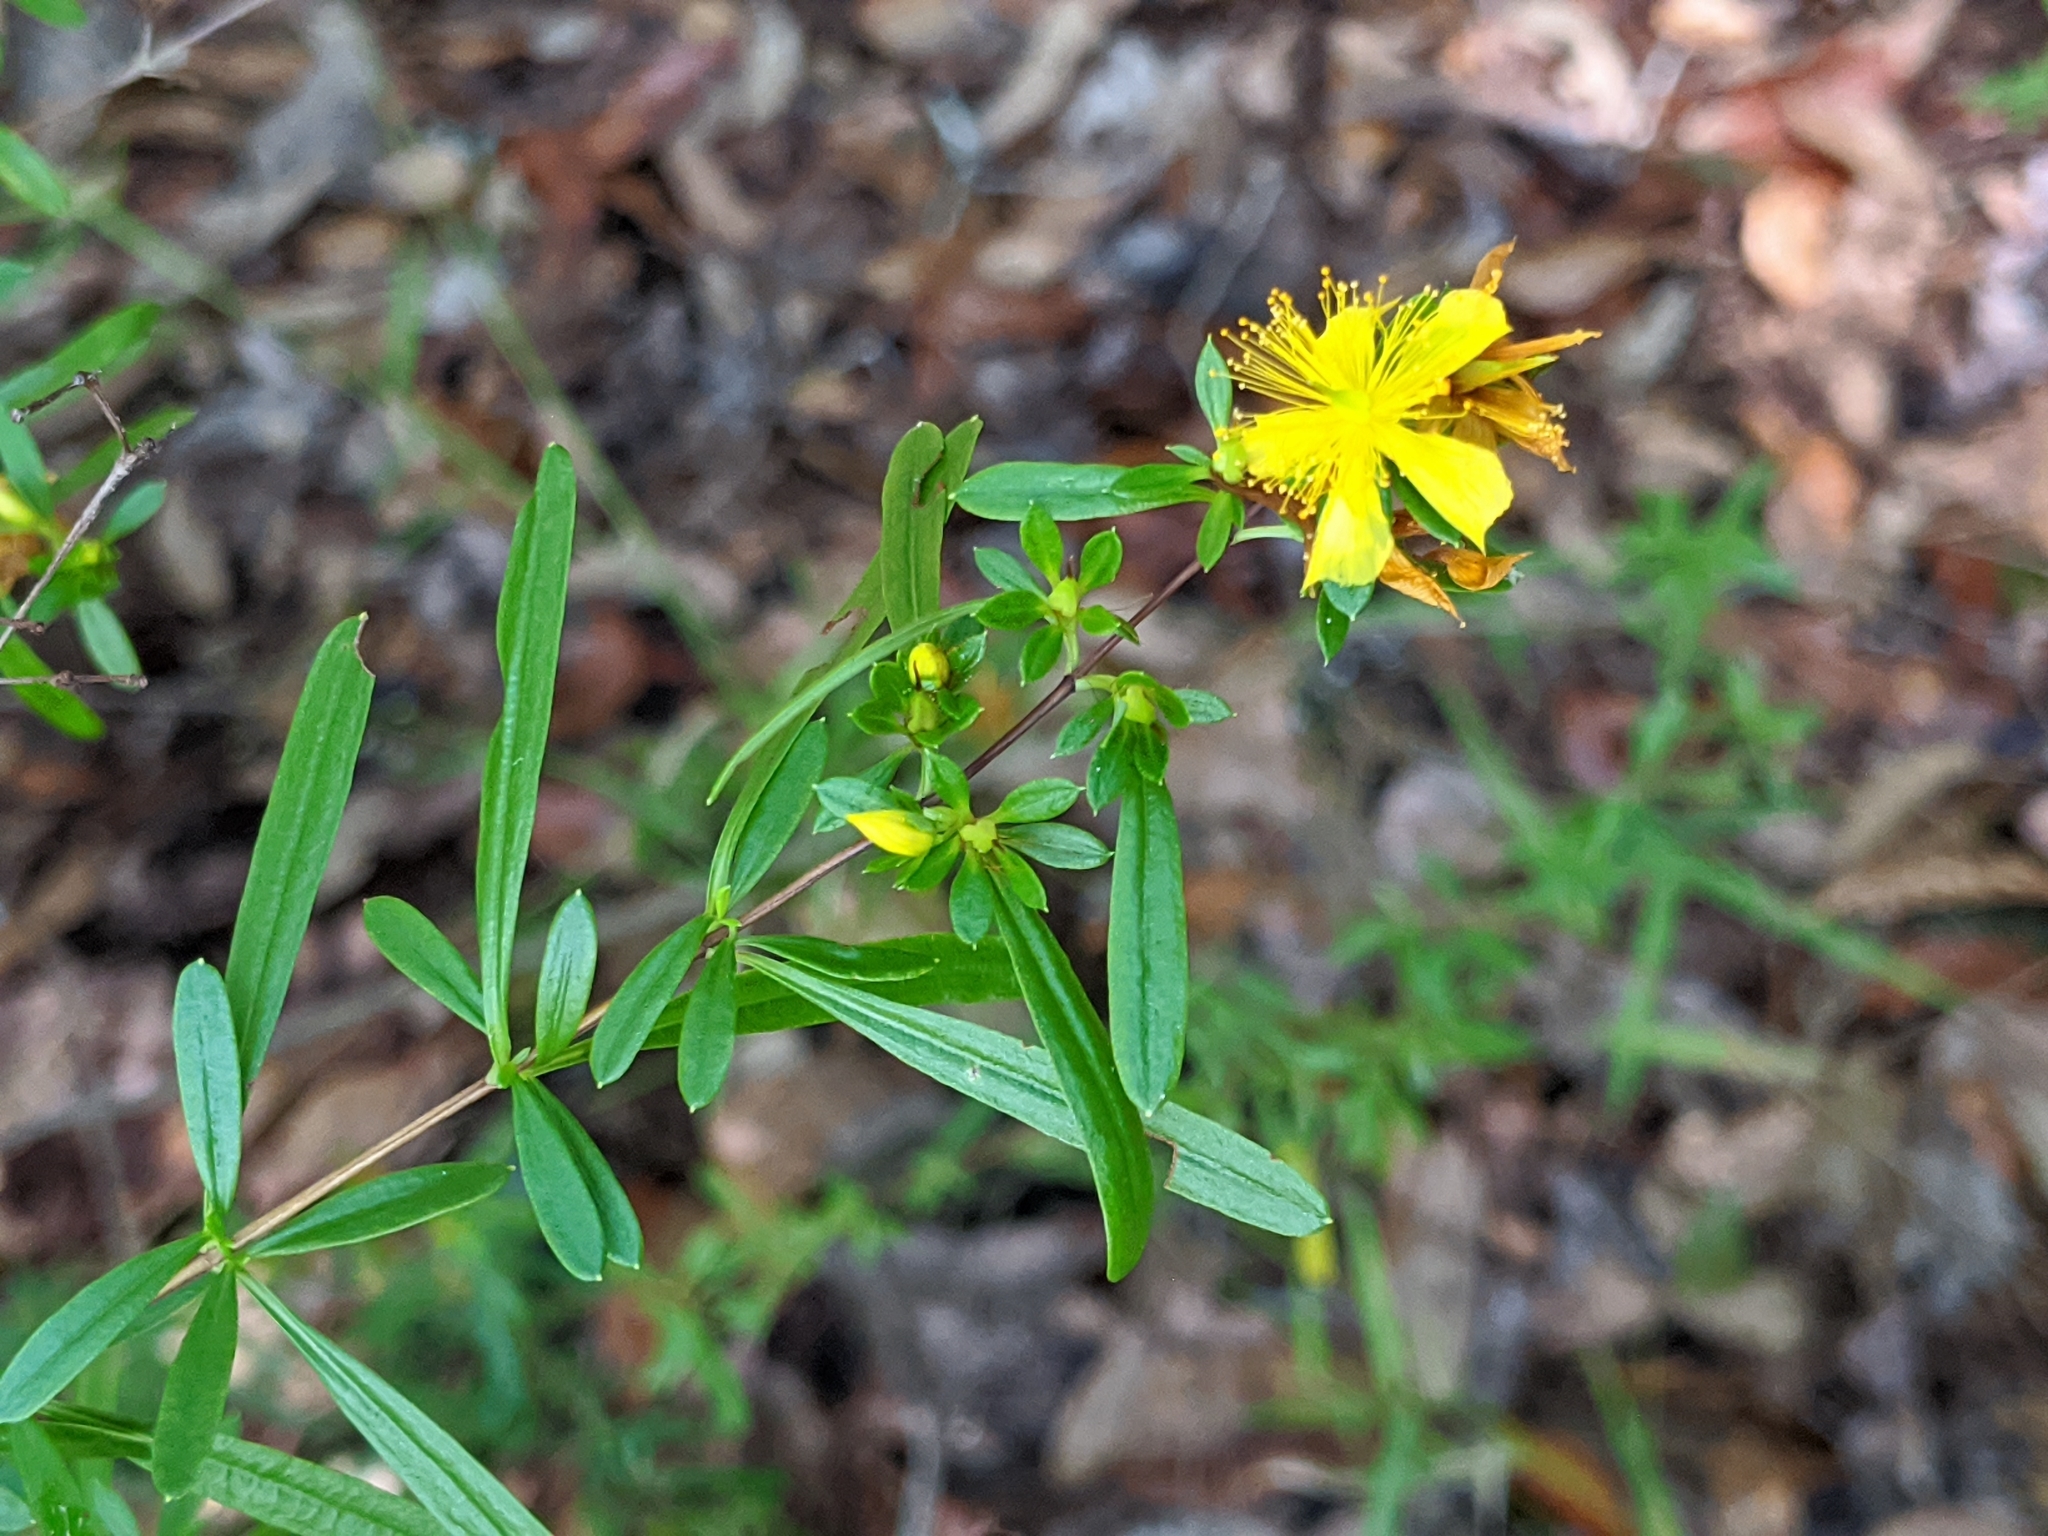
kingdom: Plantae
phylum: Tracheophyta
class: Magnoliopsida
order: Malpighiales
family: Hypericaceae
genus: Hypericum
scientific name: Hypericum prolificum
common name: Shrubby st. john's-wort
